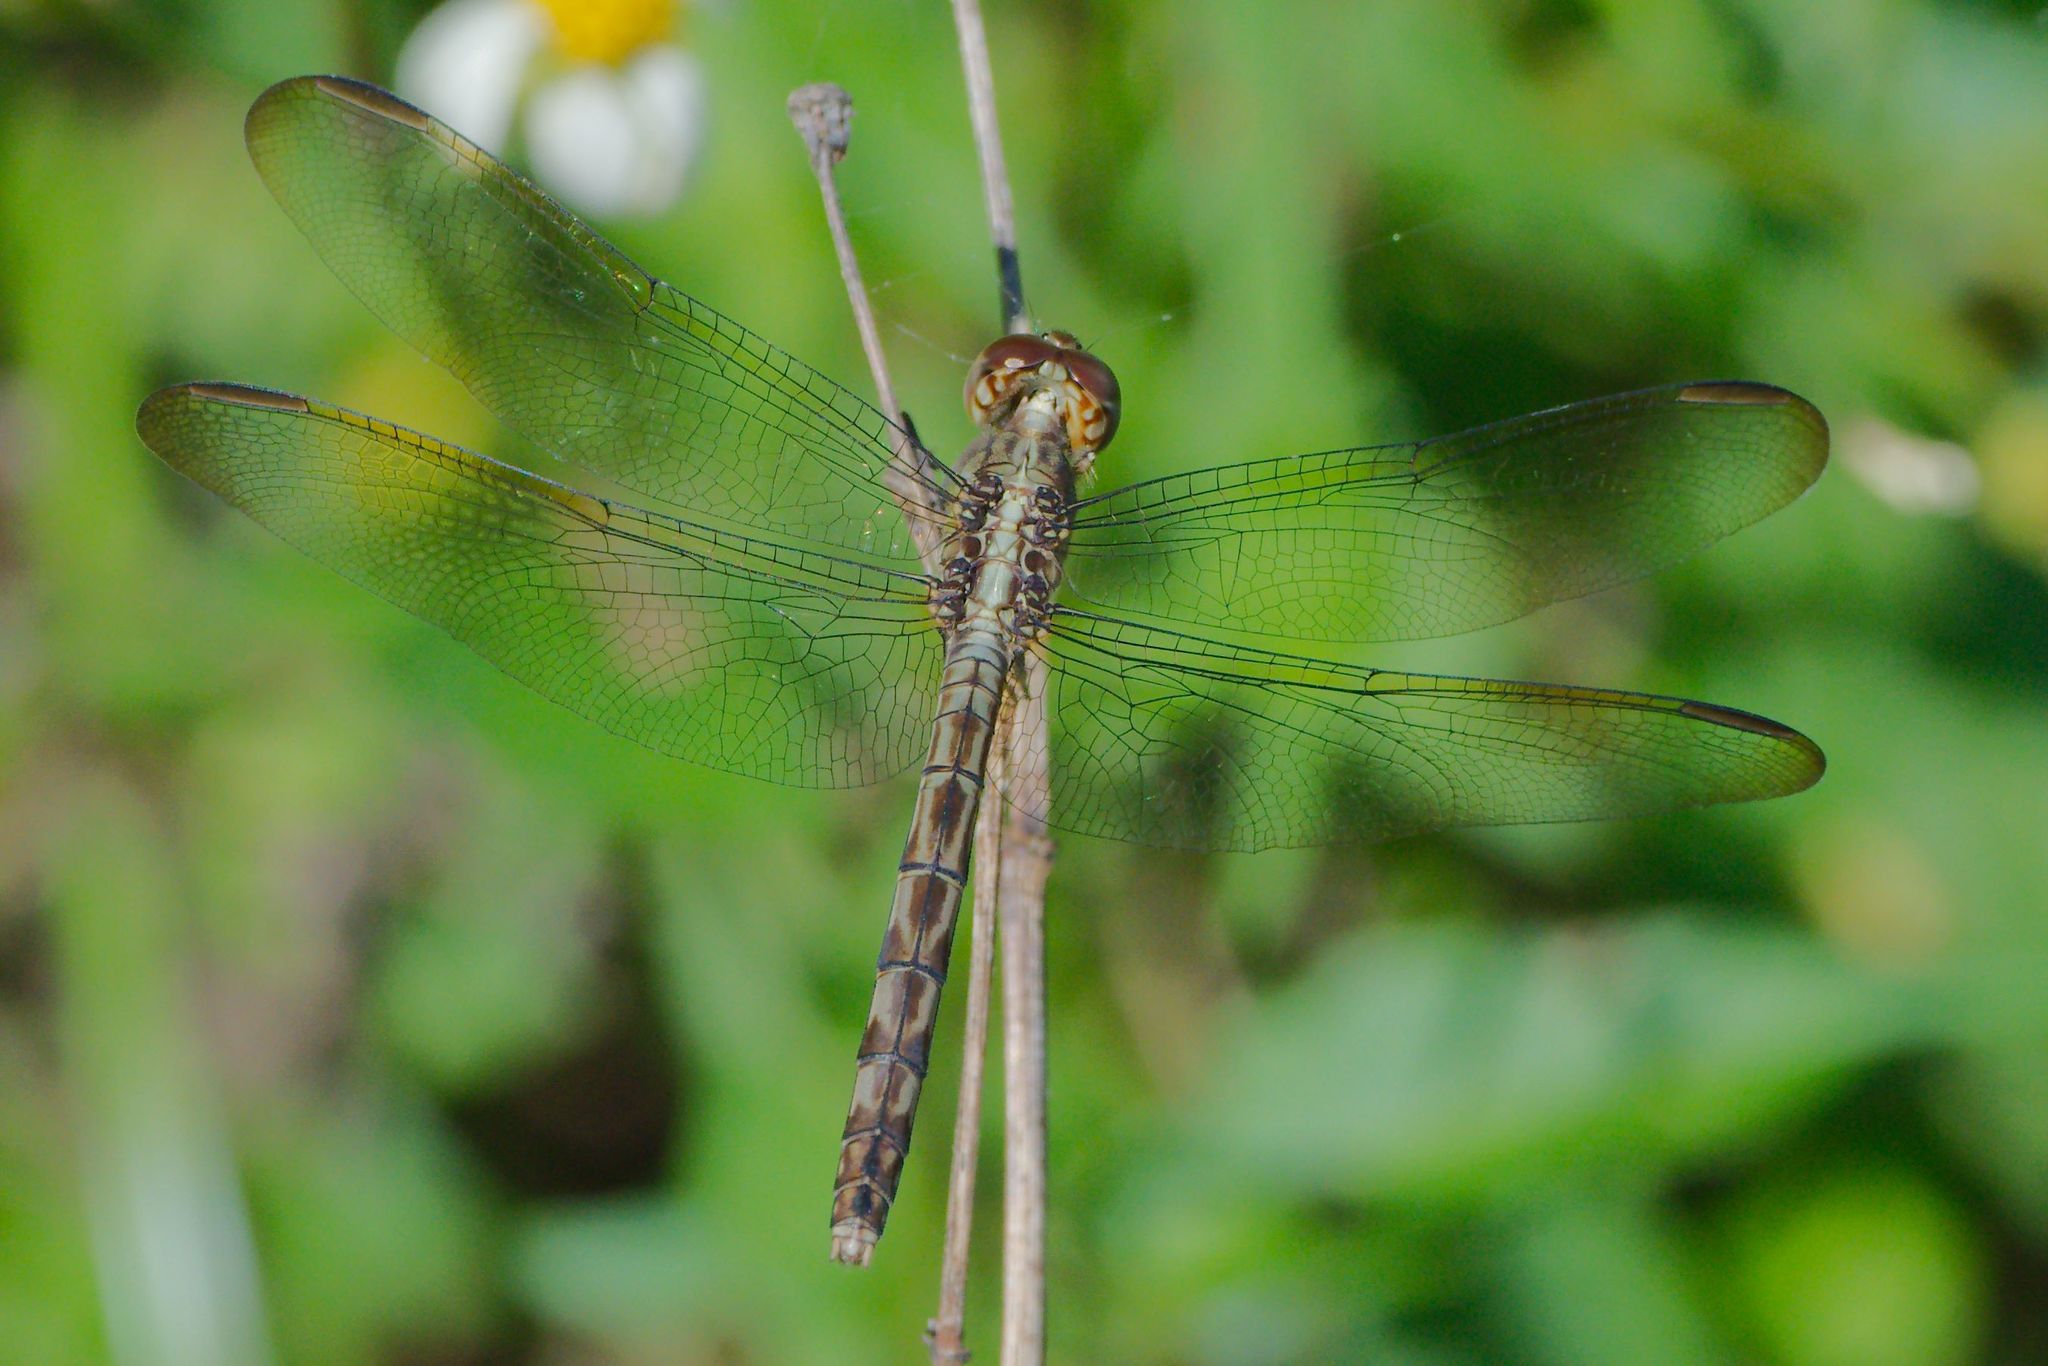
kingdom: Animalia
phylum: Arthropoda
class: Insecta
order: Odonata
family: Libellulidae
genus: Erythrodiplax
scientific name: Erythrodiplax umbrata
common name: Band-winged dragonlet
